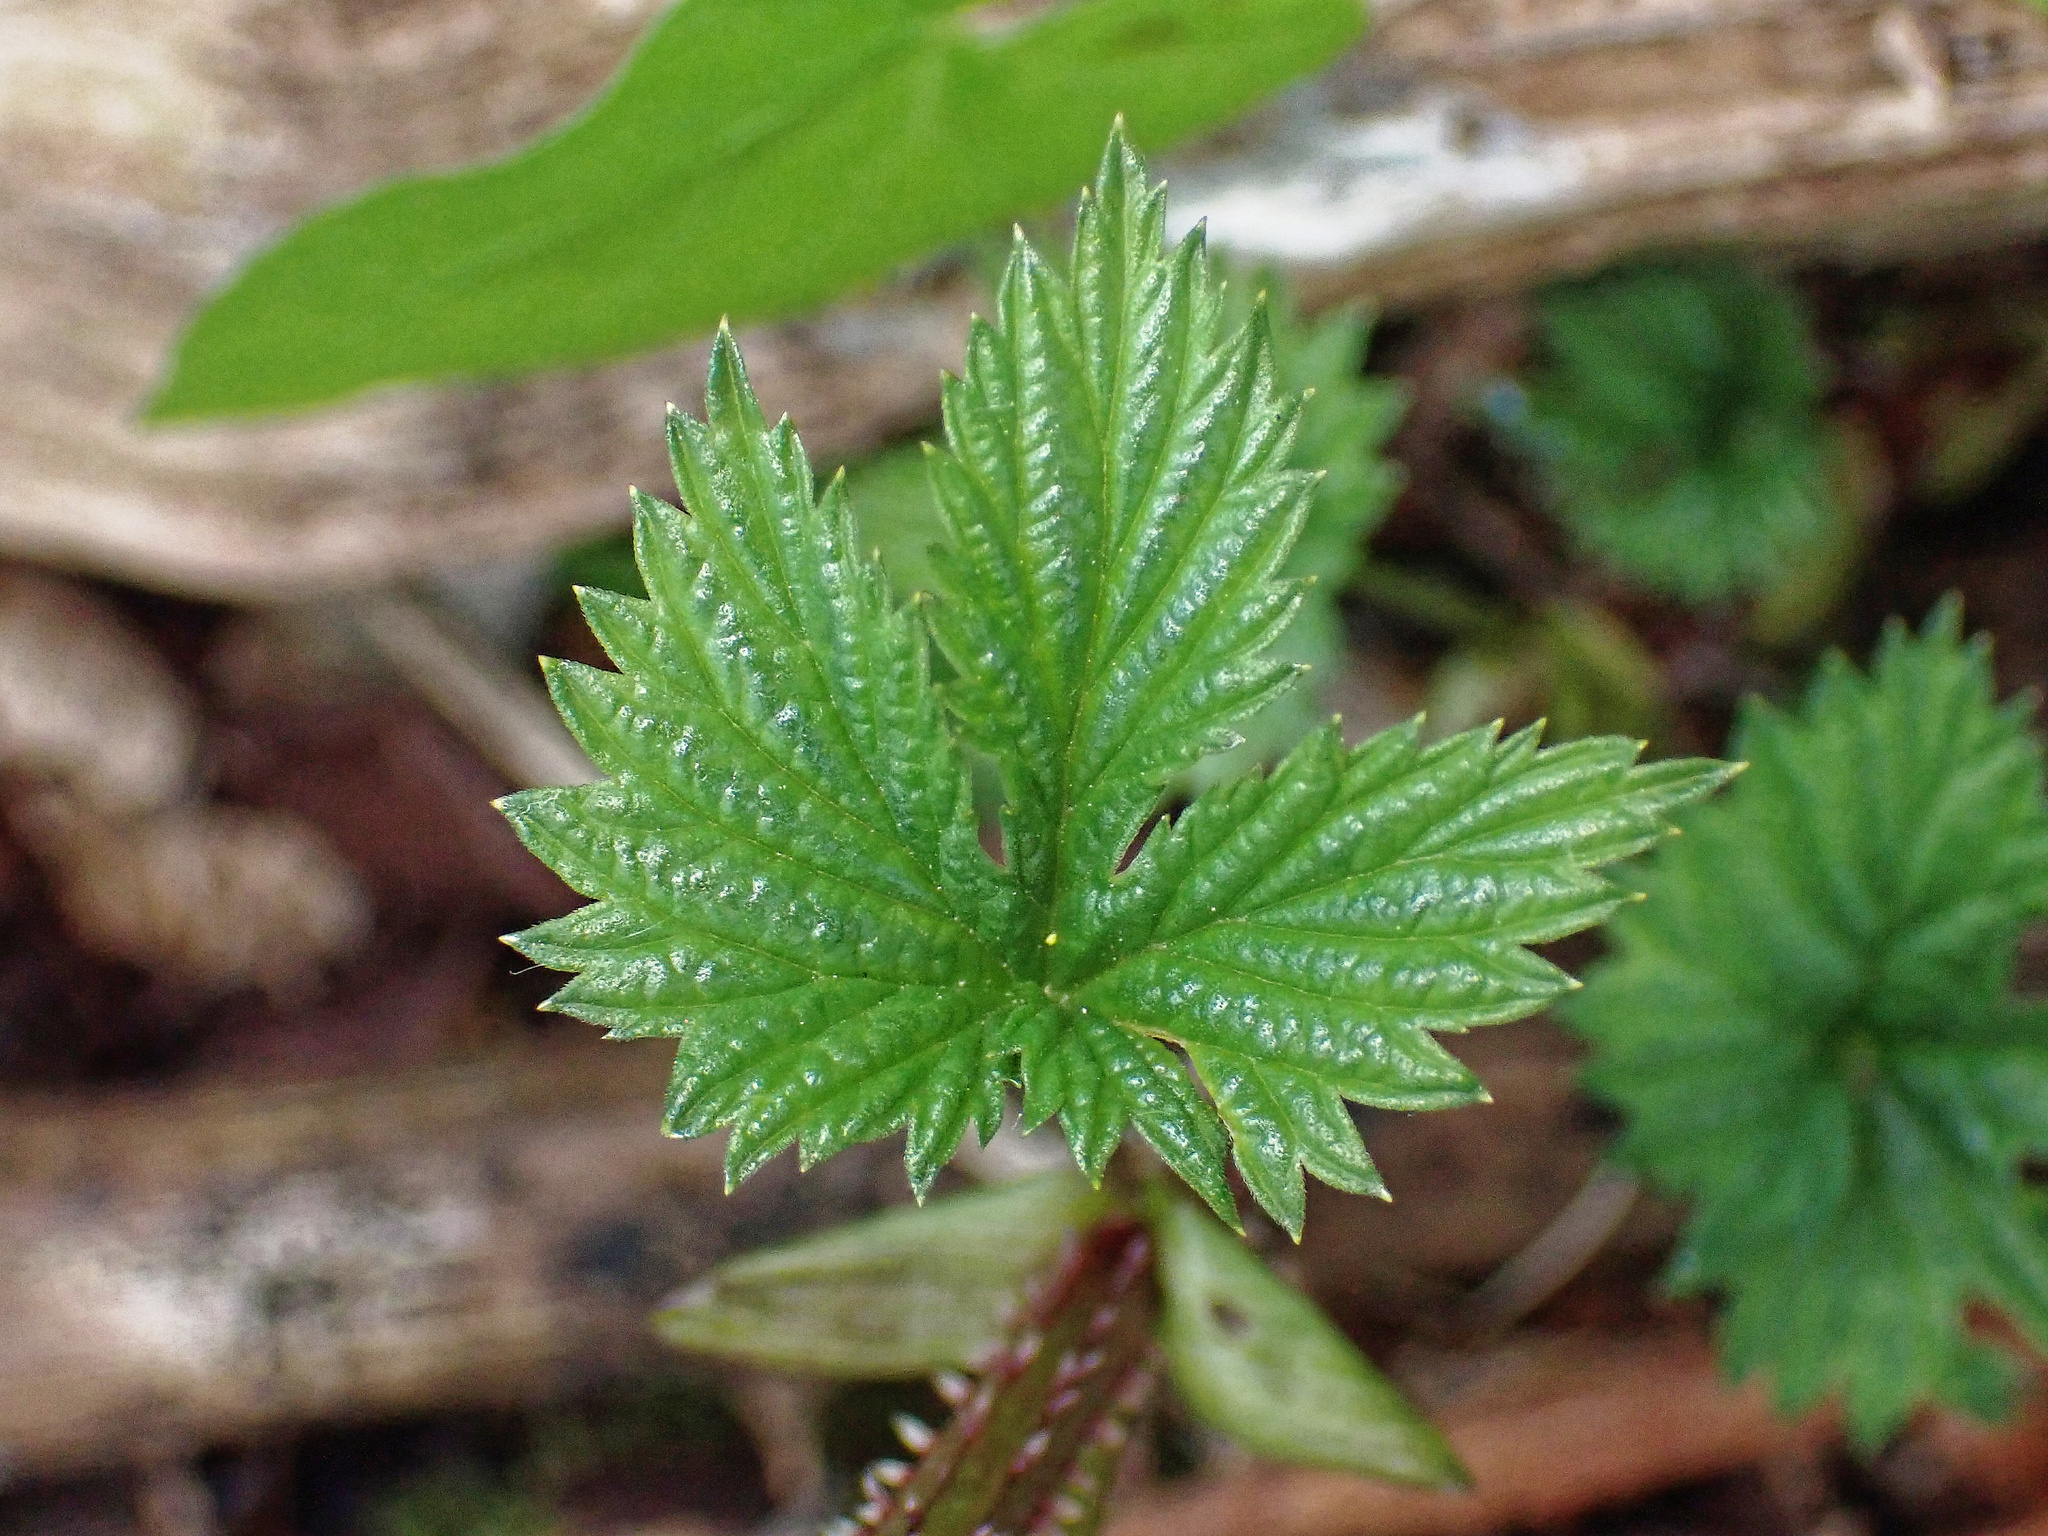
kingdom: Plantae
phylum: Tracheophyta
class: Magnoliopsida
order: Rosales
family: Cannabaceae
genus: Humulus
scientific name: Humulus lupulus
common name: Hop
